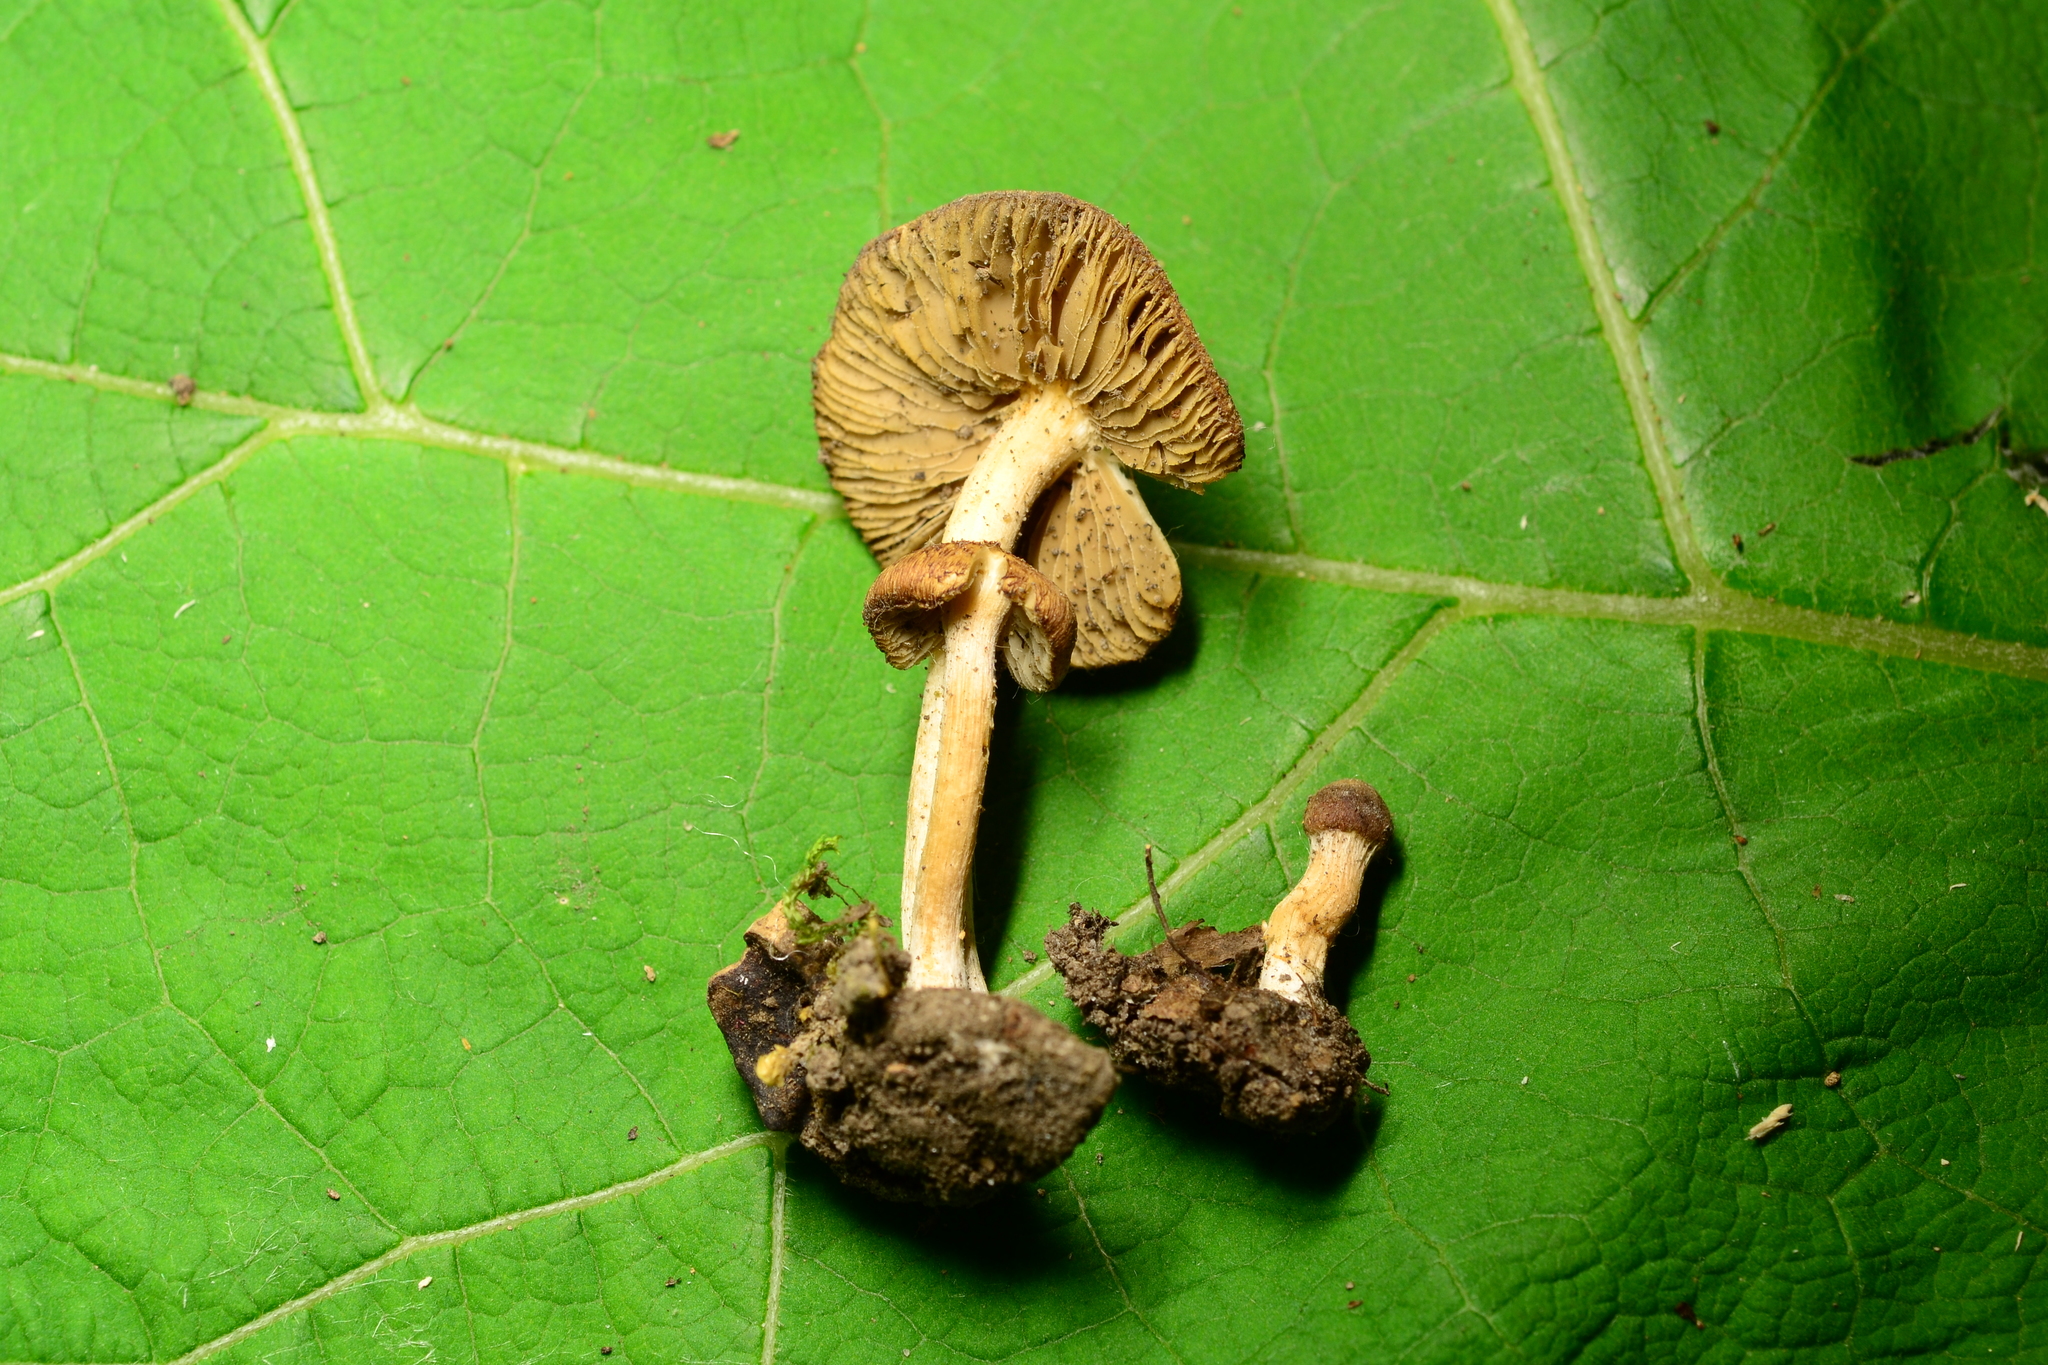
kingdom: Fungi
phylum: Basidiomycota
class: Agaricomycetes
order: Agaricales
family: Inocybaceae
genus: Inocybe
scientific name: Inocybe flocculosa
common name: Fleecy fibrecap
